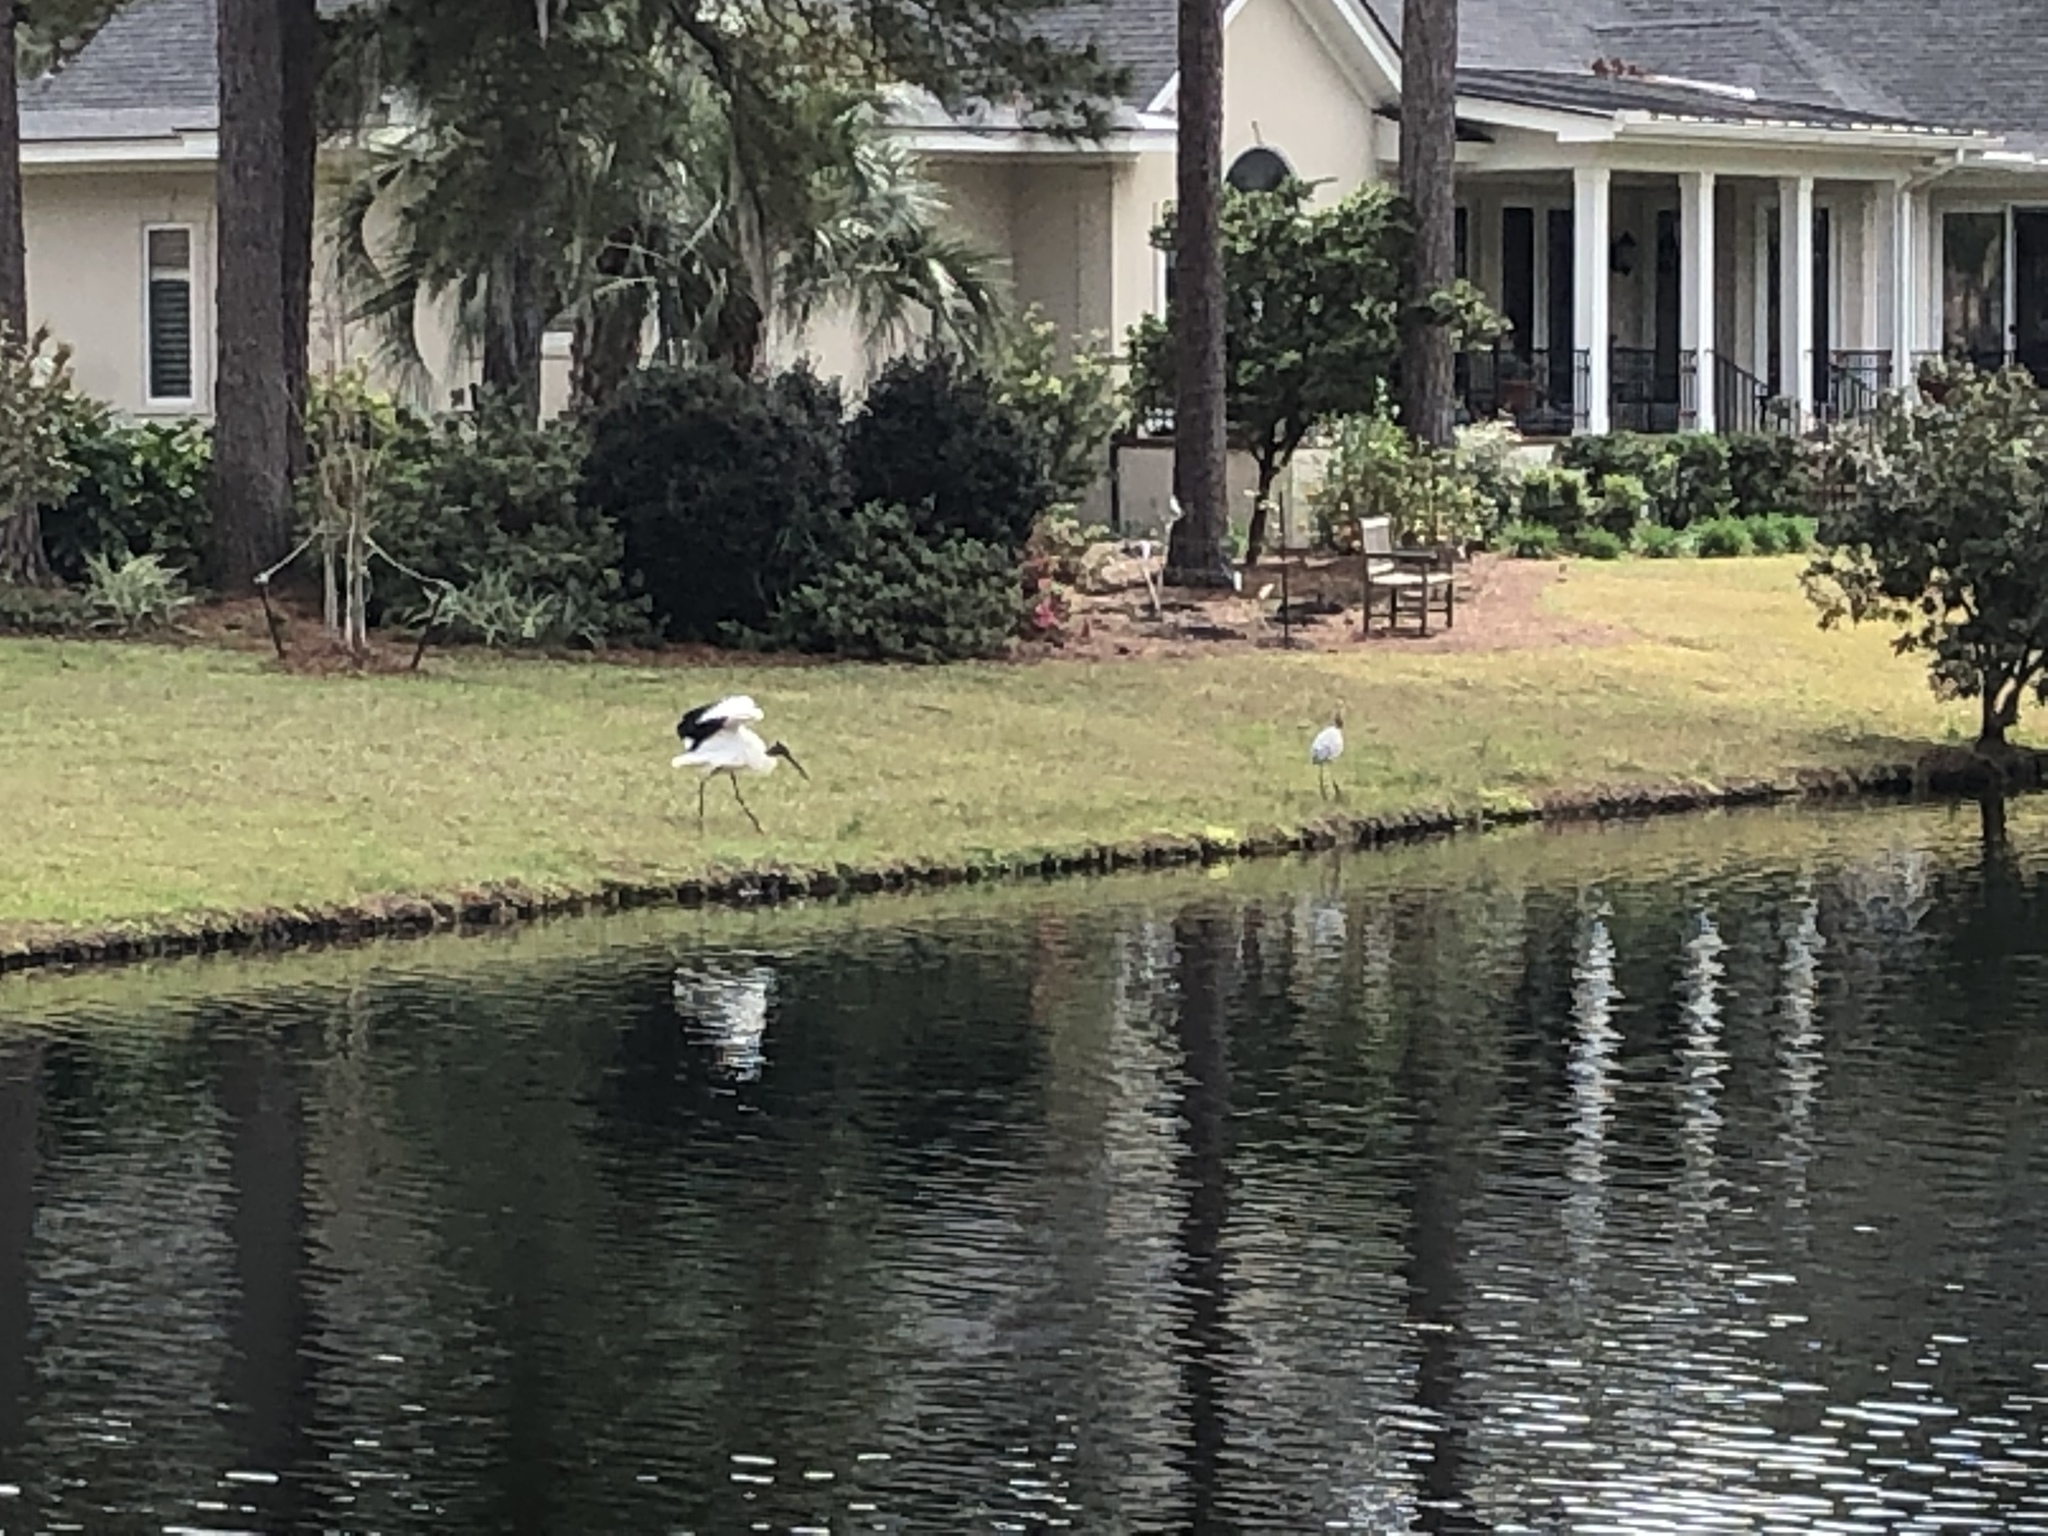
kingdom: Animalia
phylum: Chordata
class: Aves
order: Ciconiiformes
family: Ciconiidae
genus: Mycteria
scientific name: Mycteria americana
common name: Wood stork
